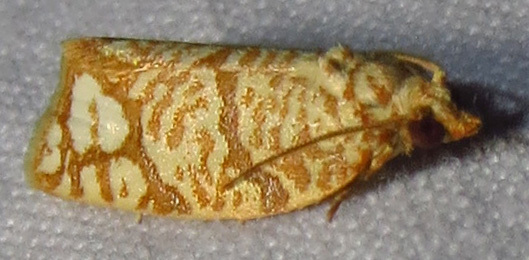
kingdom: Animalia
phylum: Arthropoda
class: Insecta
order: Lepidoptera
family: Tortricidae
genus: Argyrotaenia
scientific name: Argyrotaenia quercifoliana
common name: Yellow-winged oak leafroller moth
